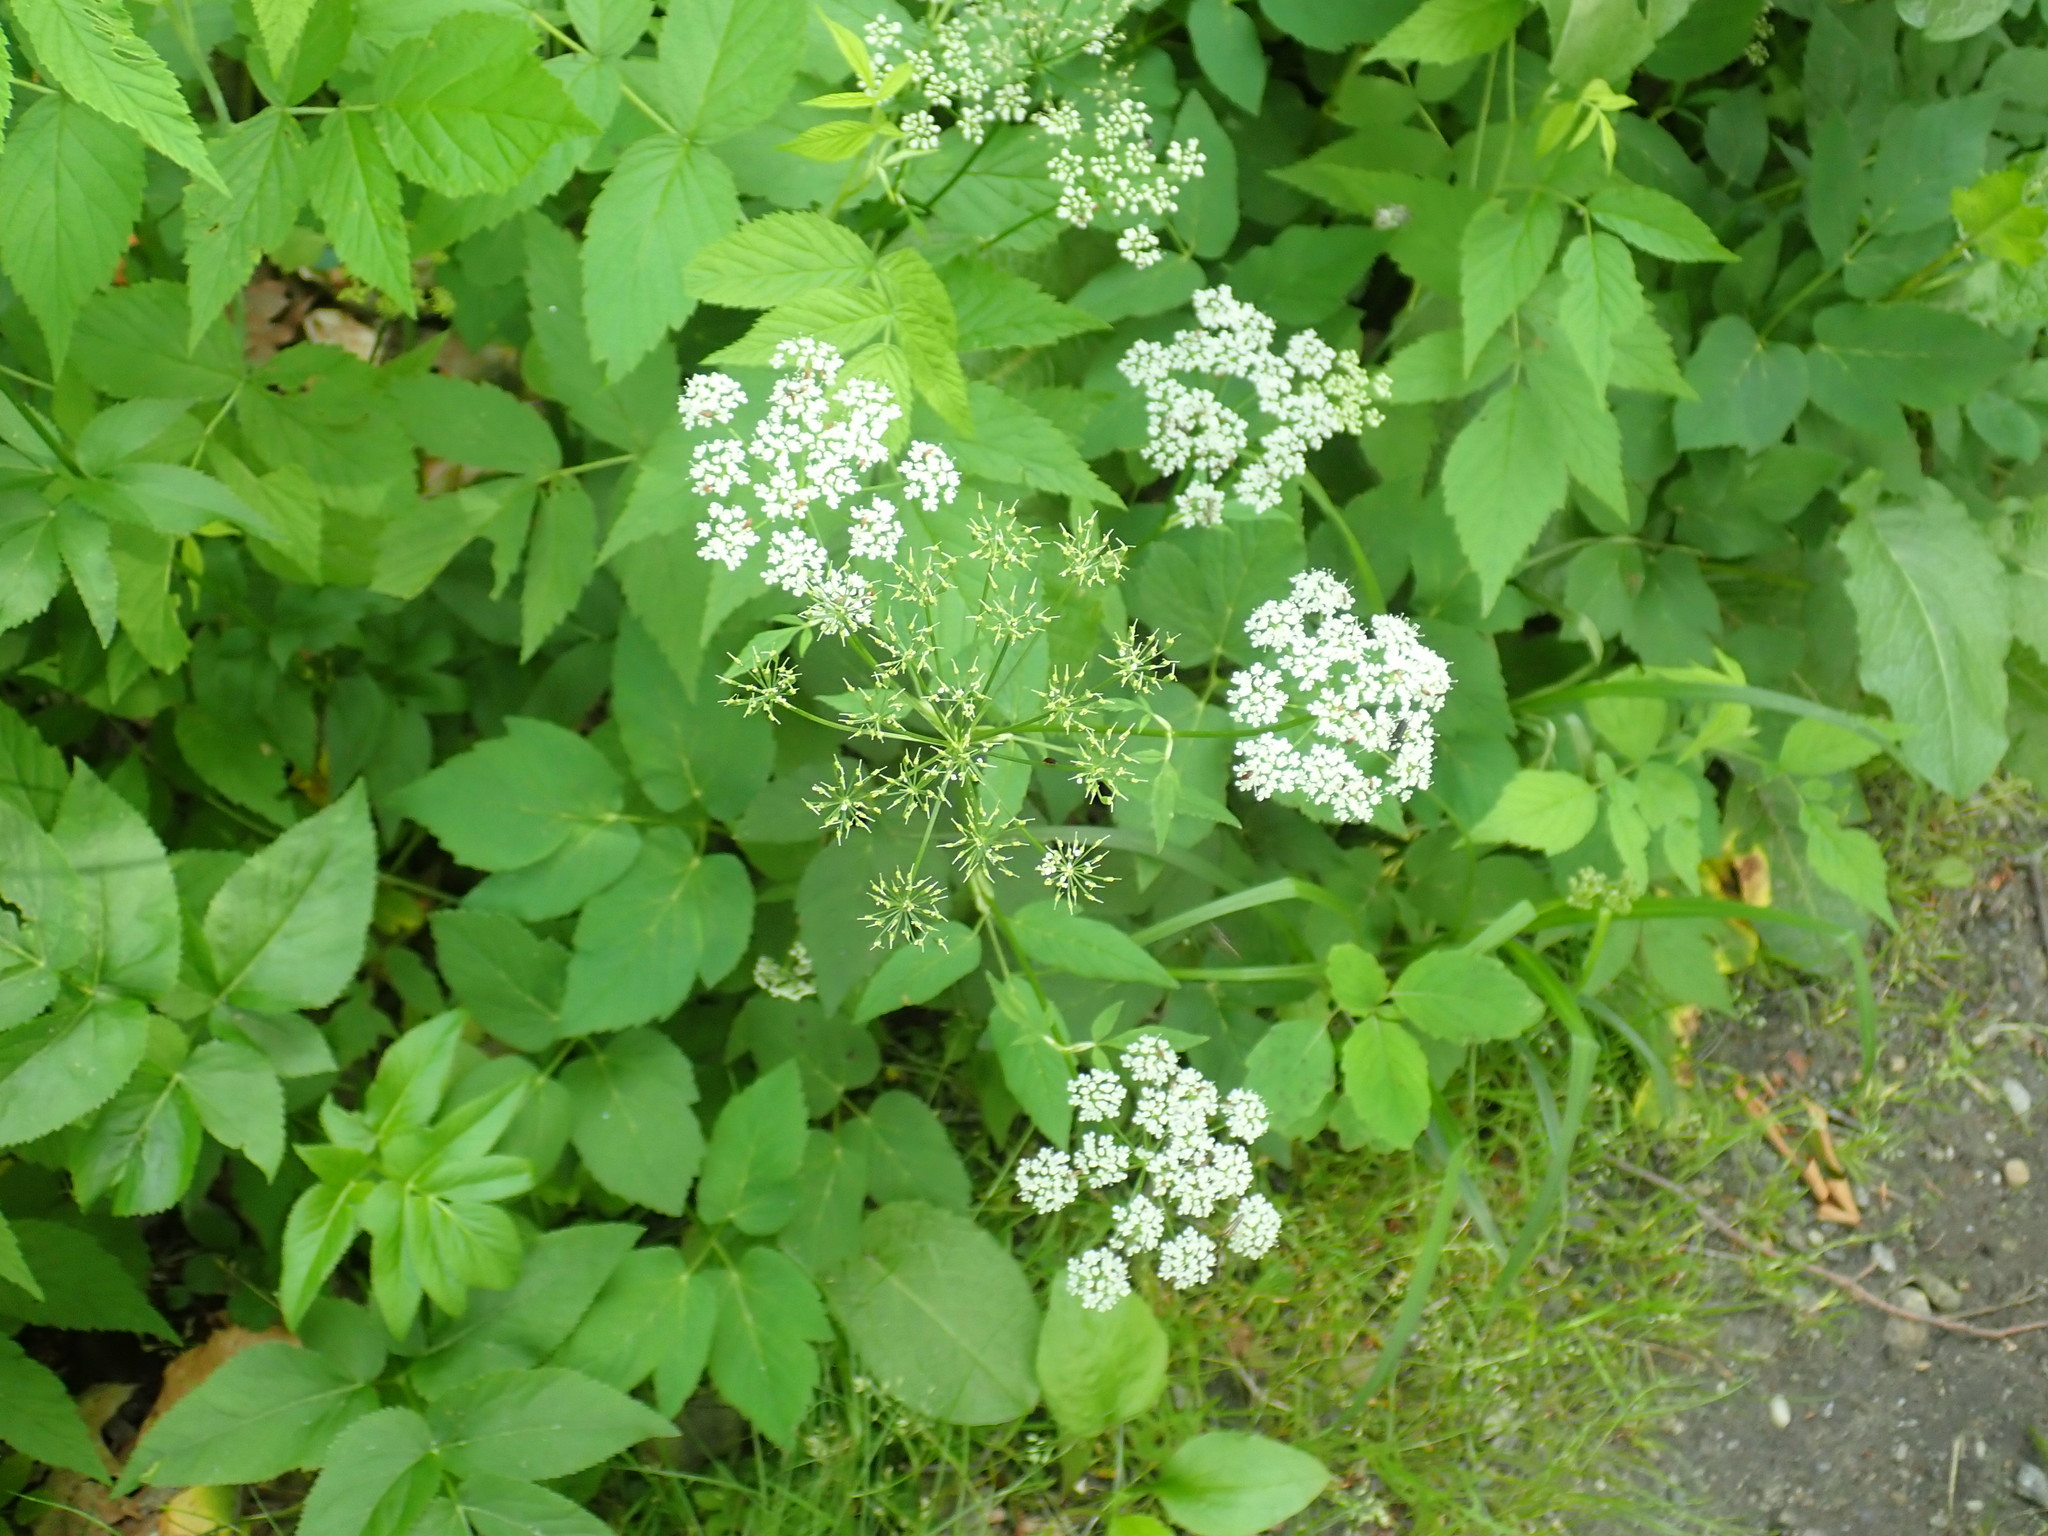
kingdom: Plantae
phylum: Tracheophyta
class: Magnoliopsida
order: Apiales
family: Apiaceae
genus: Aegopodium
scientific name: Aegopodium podagraria
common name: Ground-elder
